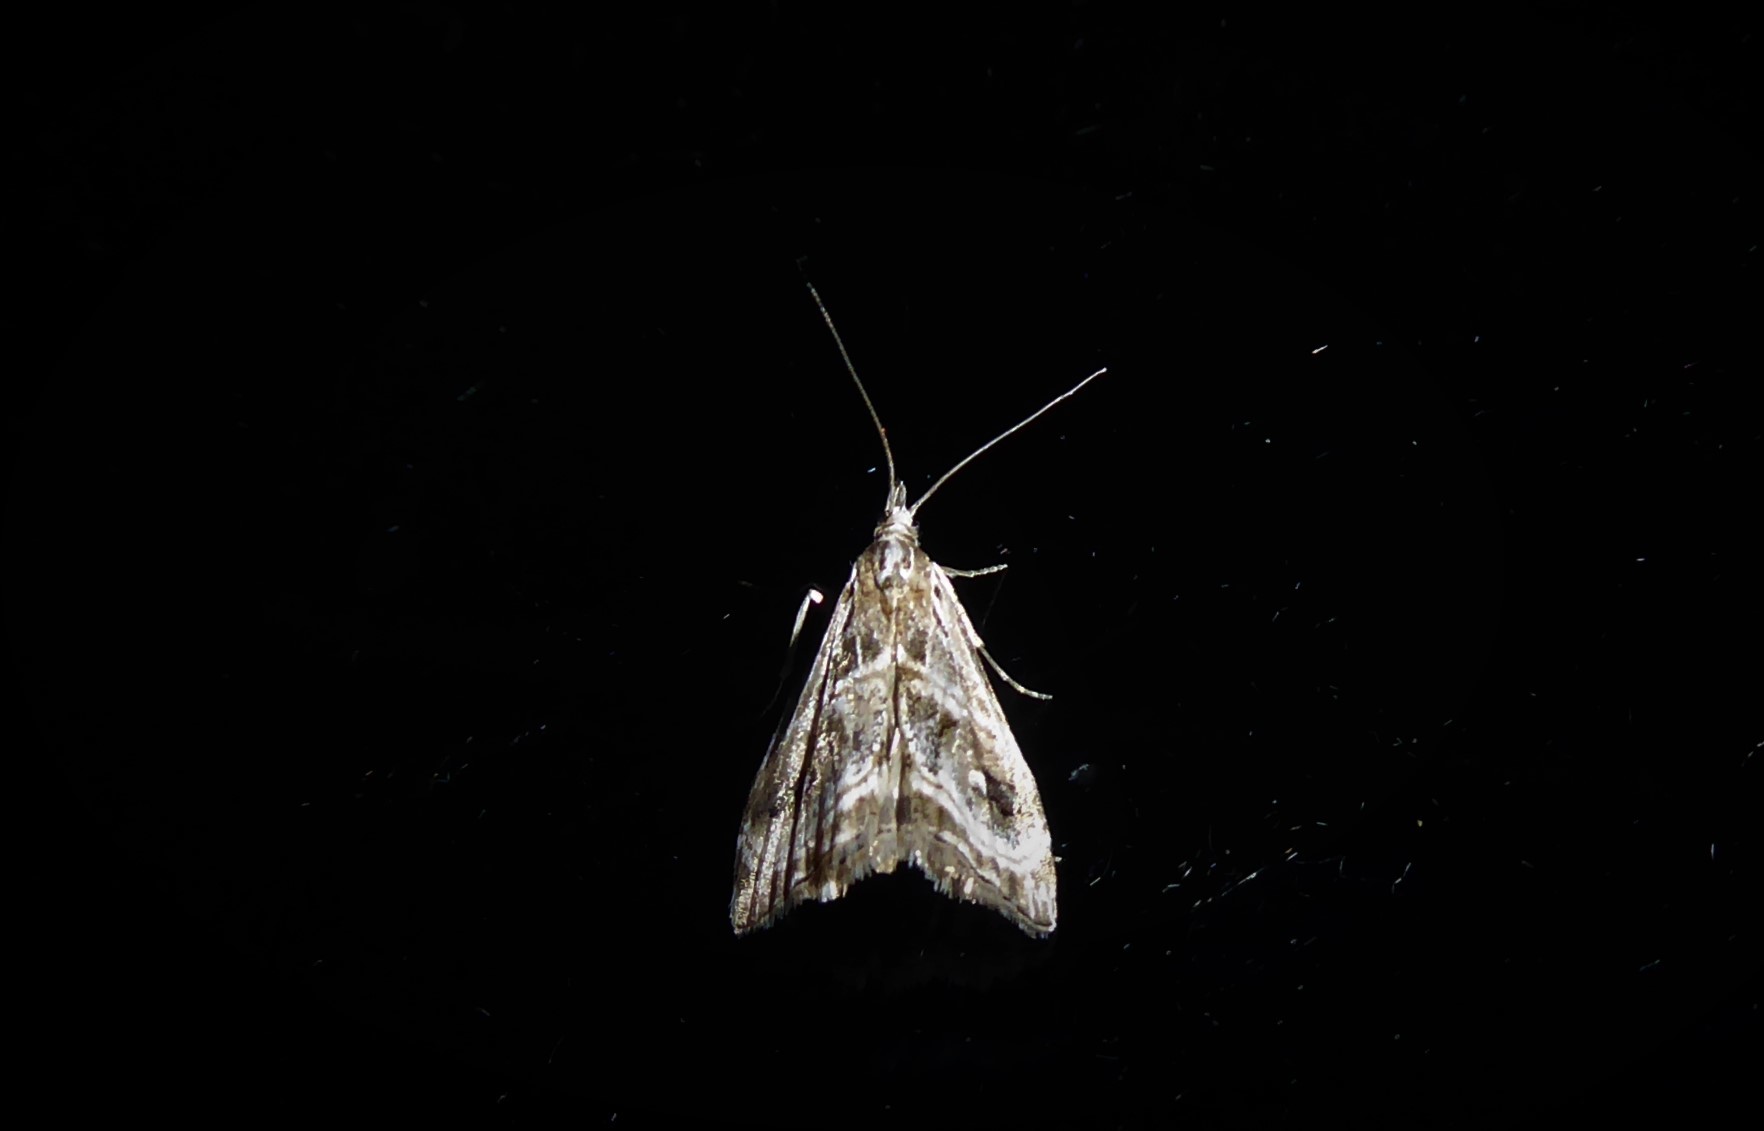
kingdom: Animalia
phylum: Arthropoda
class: Insecta
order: Lepidoptera
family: Crambidae
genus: Gadira
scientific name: Gadira acerella
